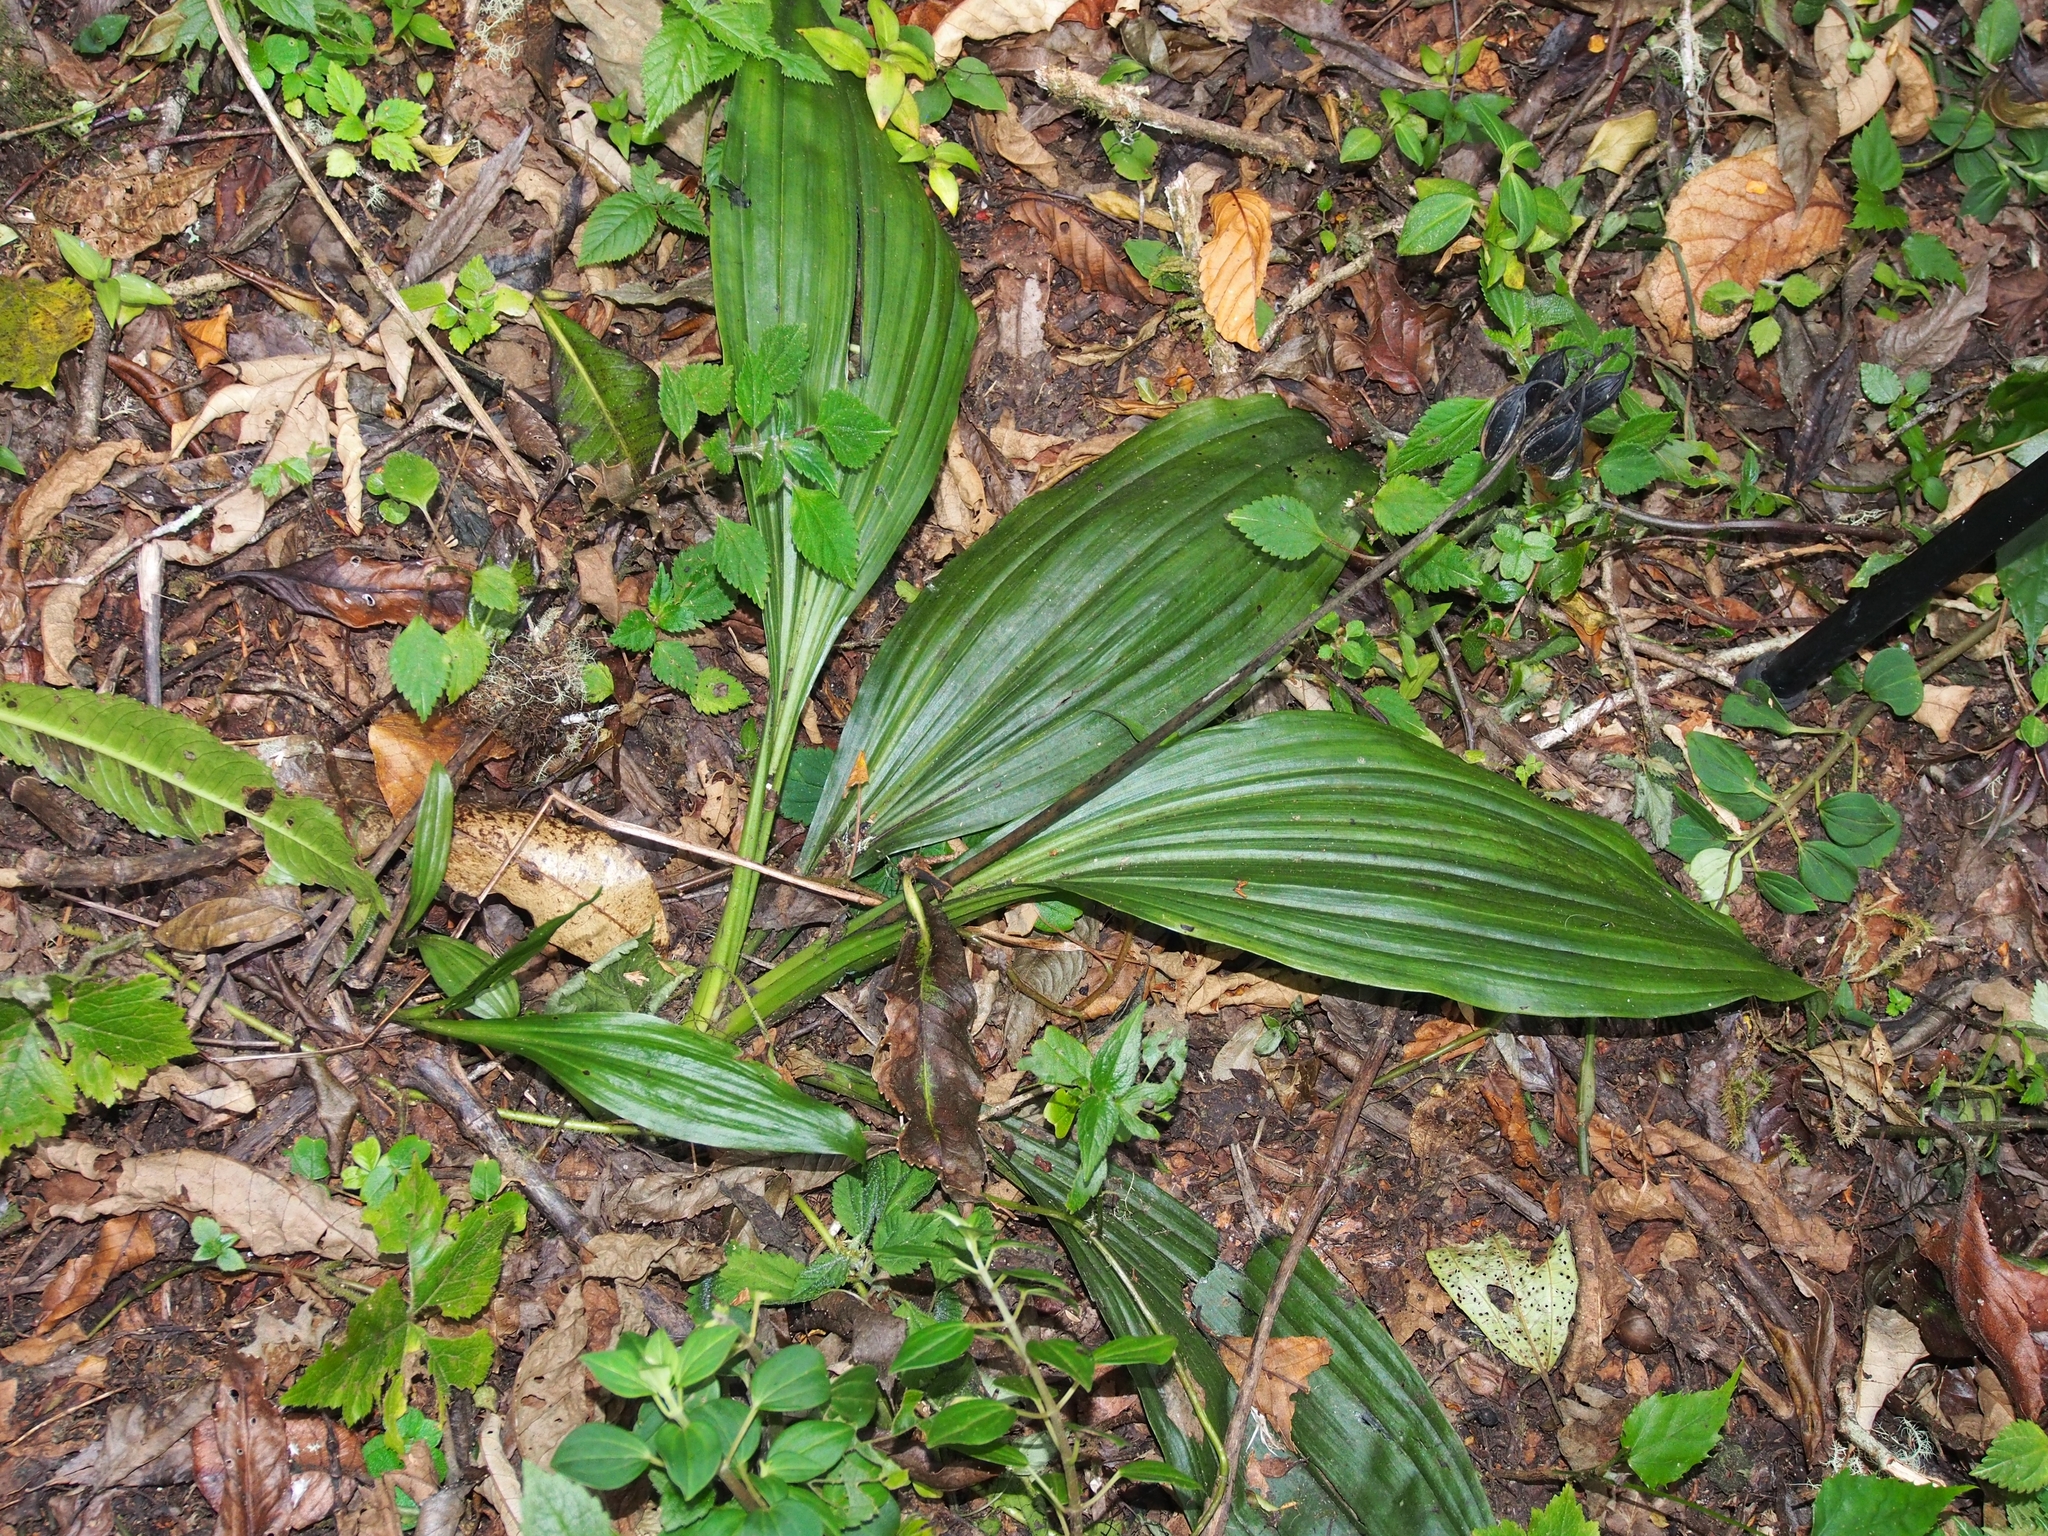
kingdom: Plantae
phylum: Tracheophyta
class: Liliopsida
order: Asparagales
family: Orchidaceae
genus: Calanthe
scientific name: Calanthe calanthoides
